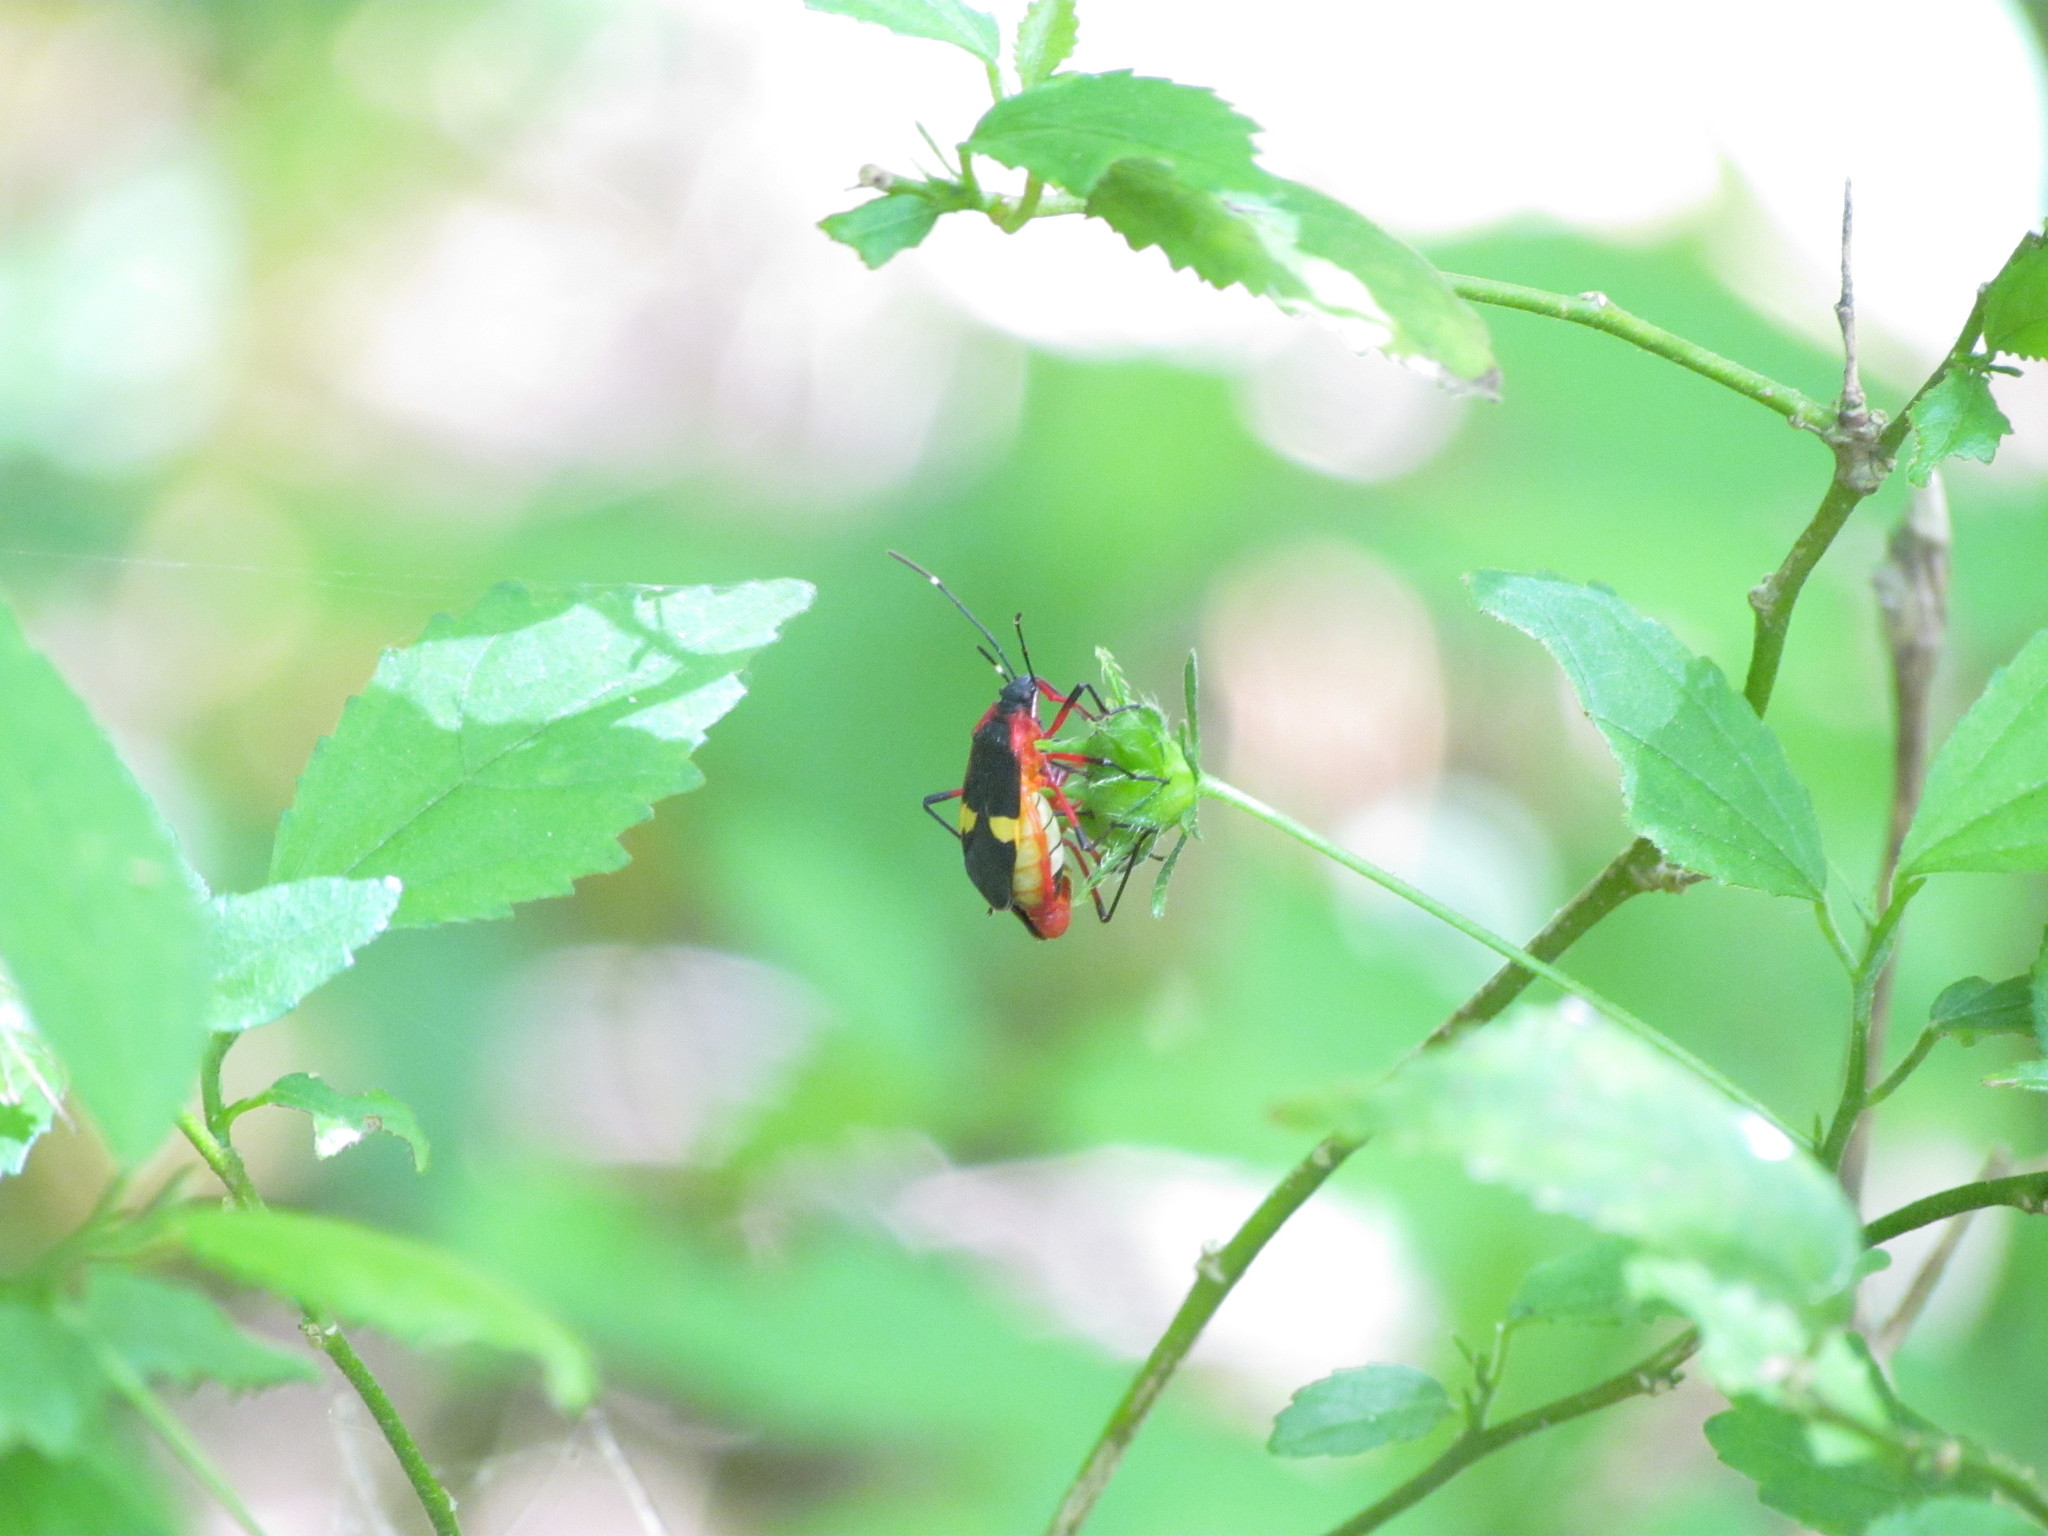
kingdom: Animalia
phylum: Arthropoda
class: Insecta
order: Hemiptera
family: Pyrrhocoridae
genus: Dysdercus
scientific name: Dysdercus albofasciatus
